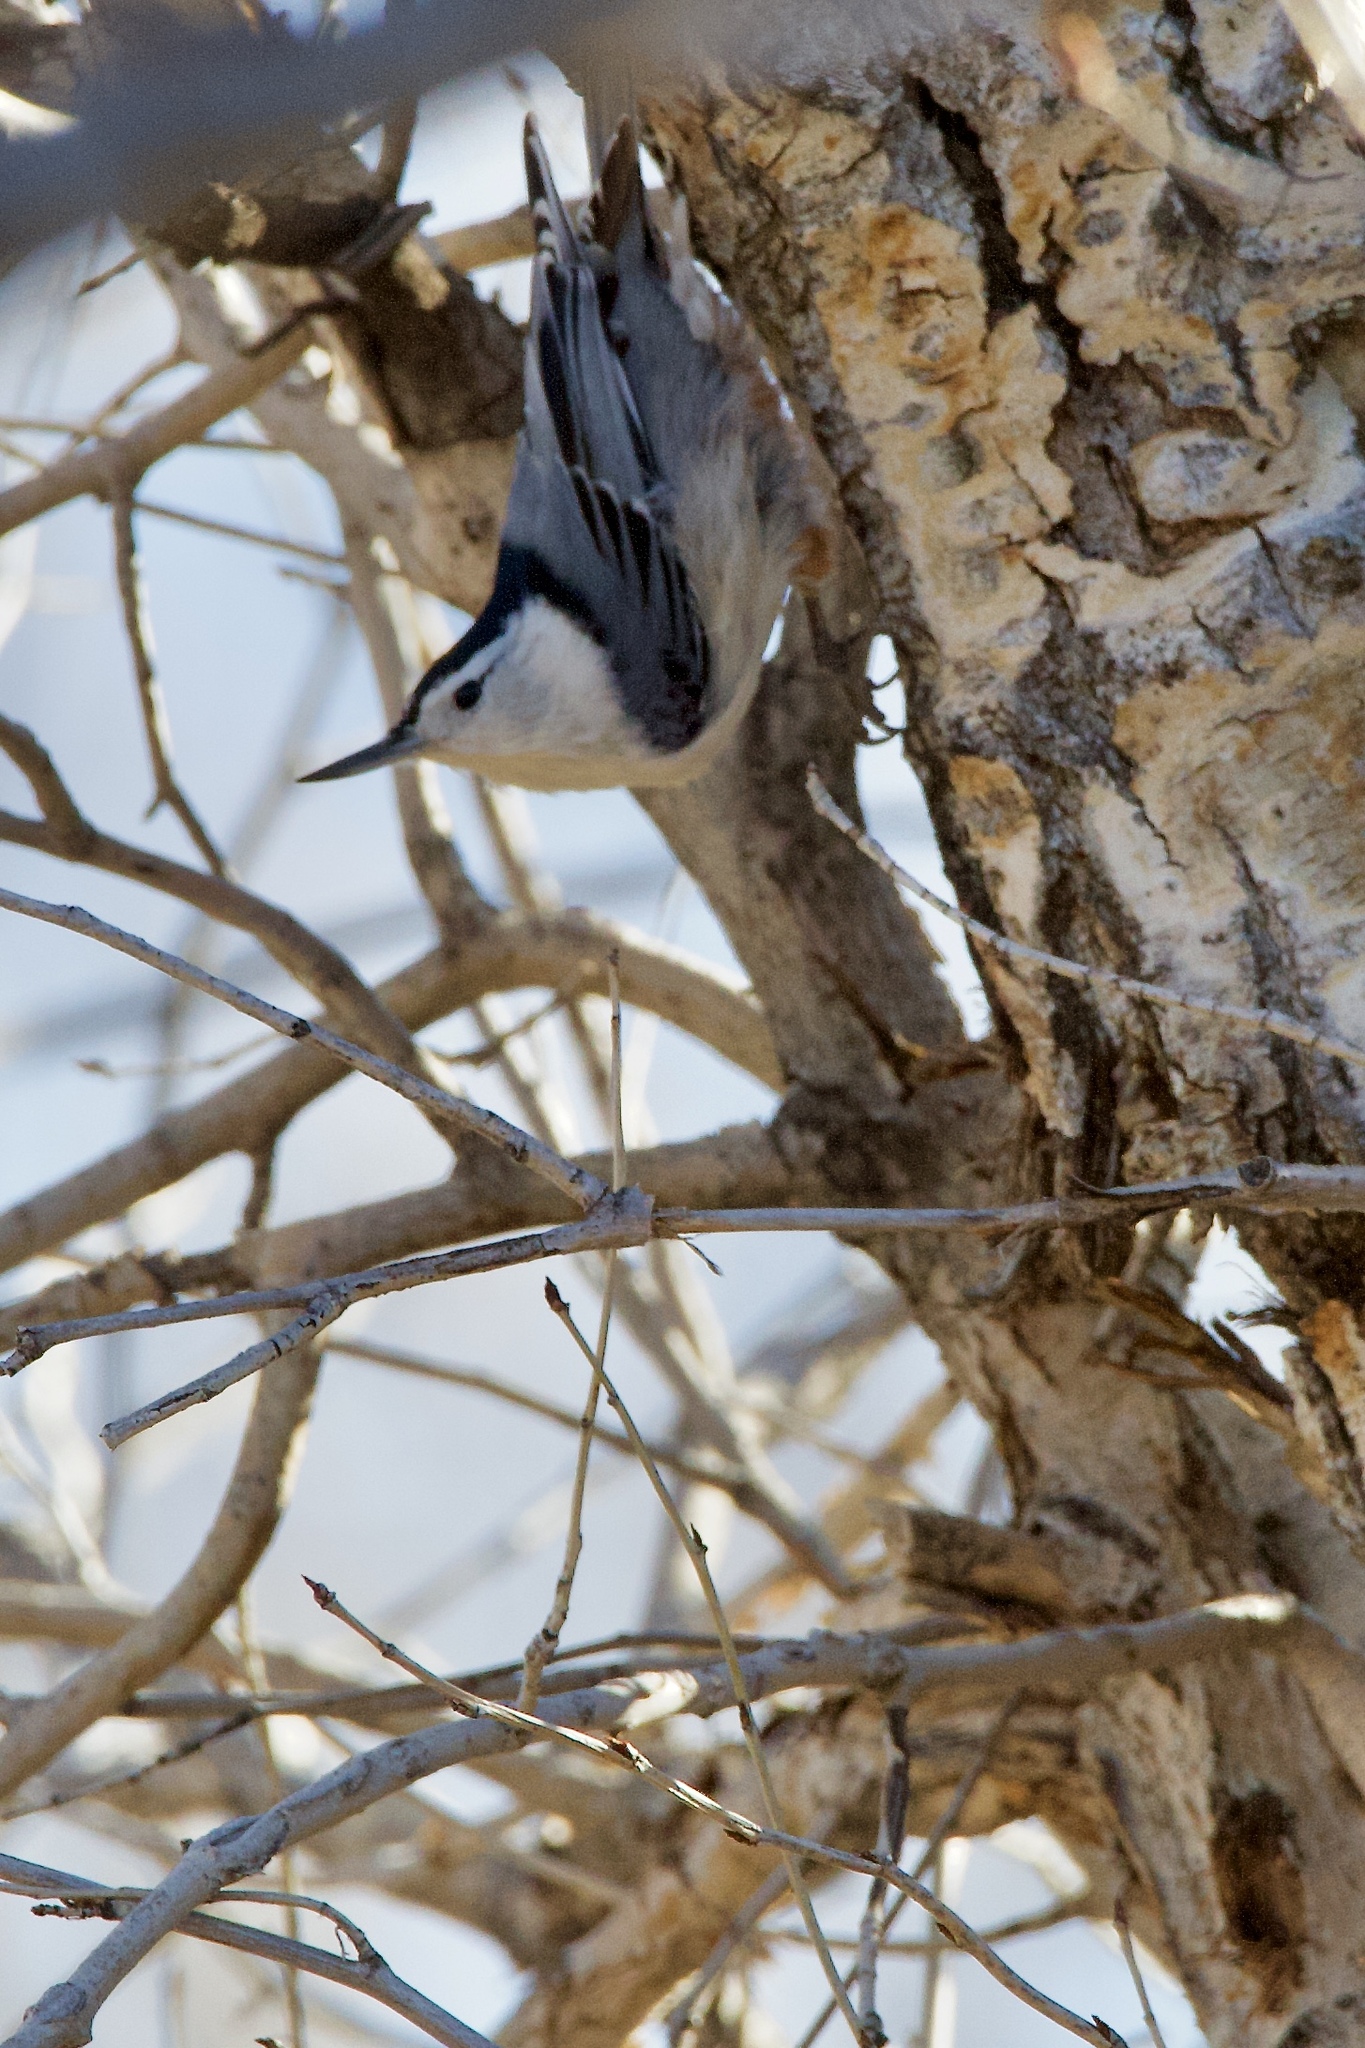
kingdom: Animalia
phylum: Chordata
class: Aves
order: Passeriformes
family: Sittidae
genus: Sitta
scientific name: Sitta carolinensis
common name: White-breasted nuthatch
